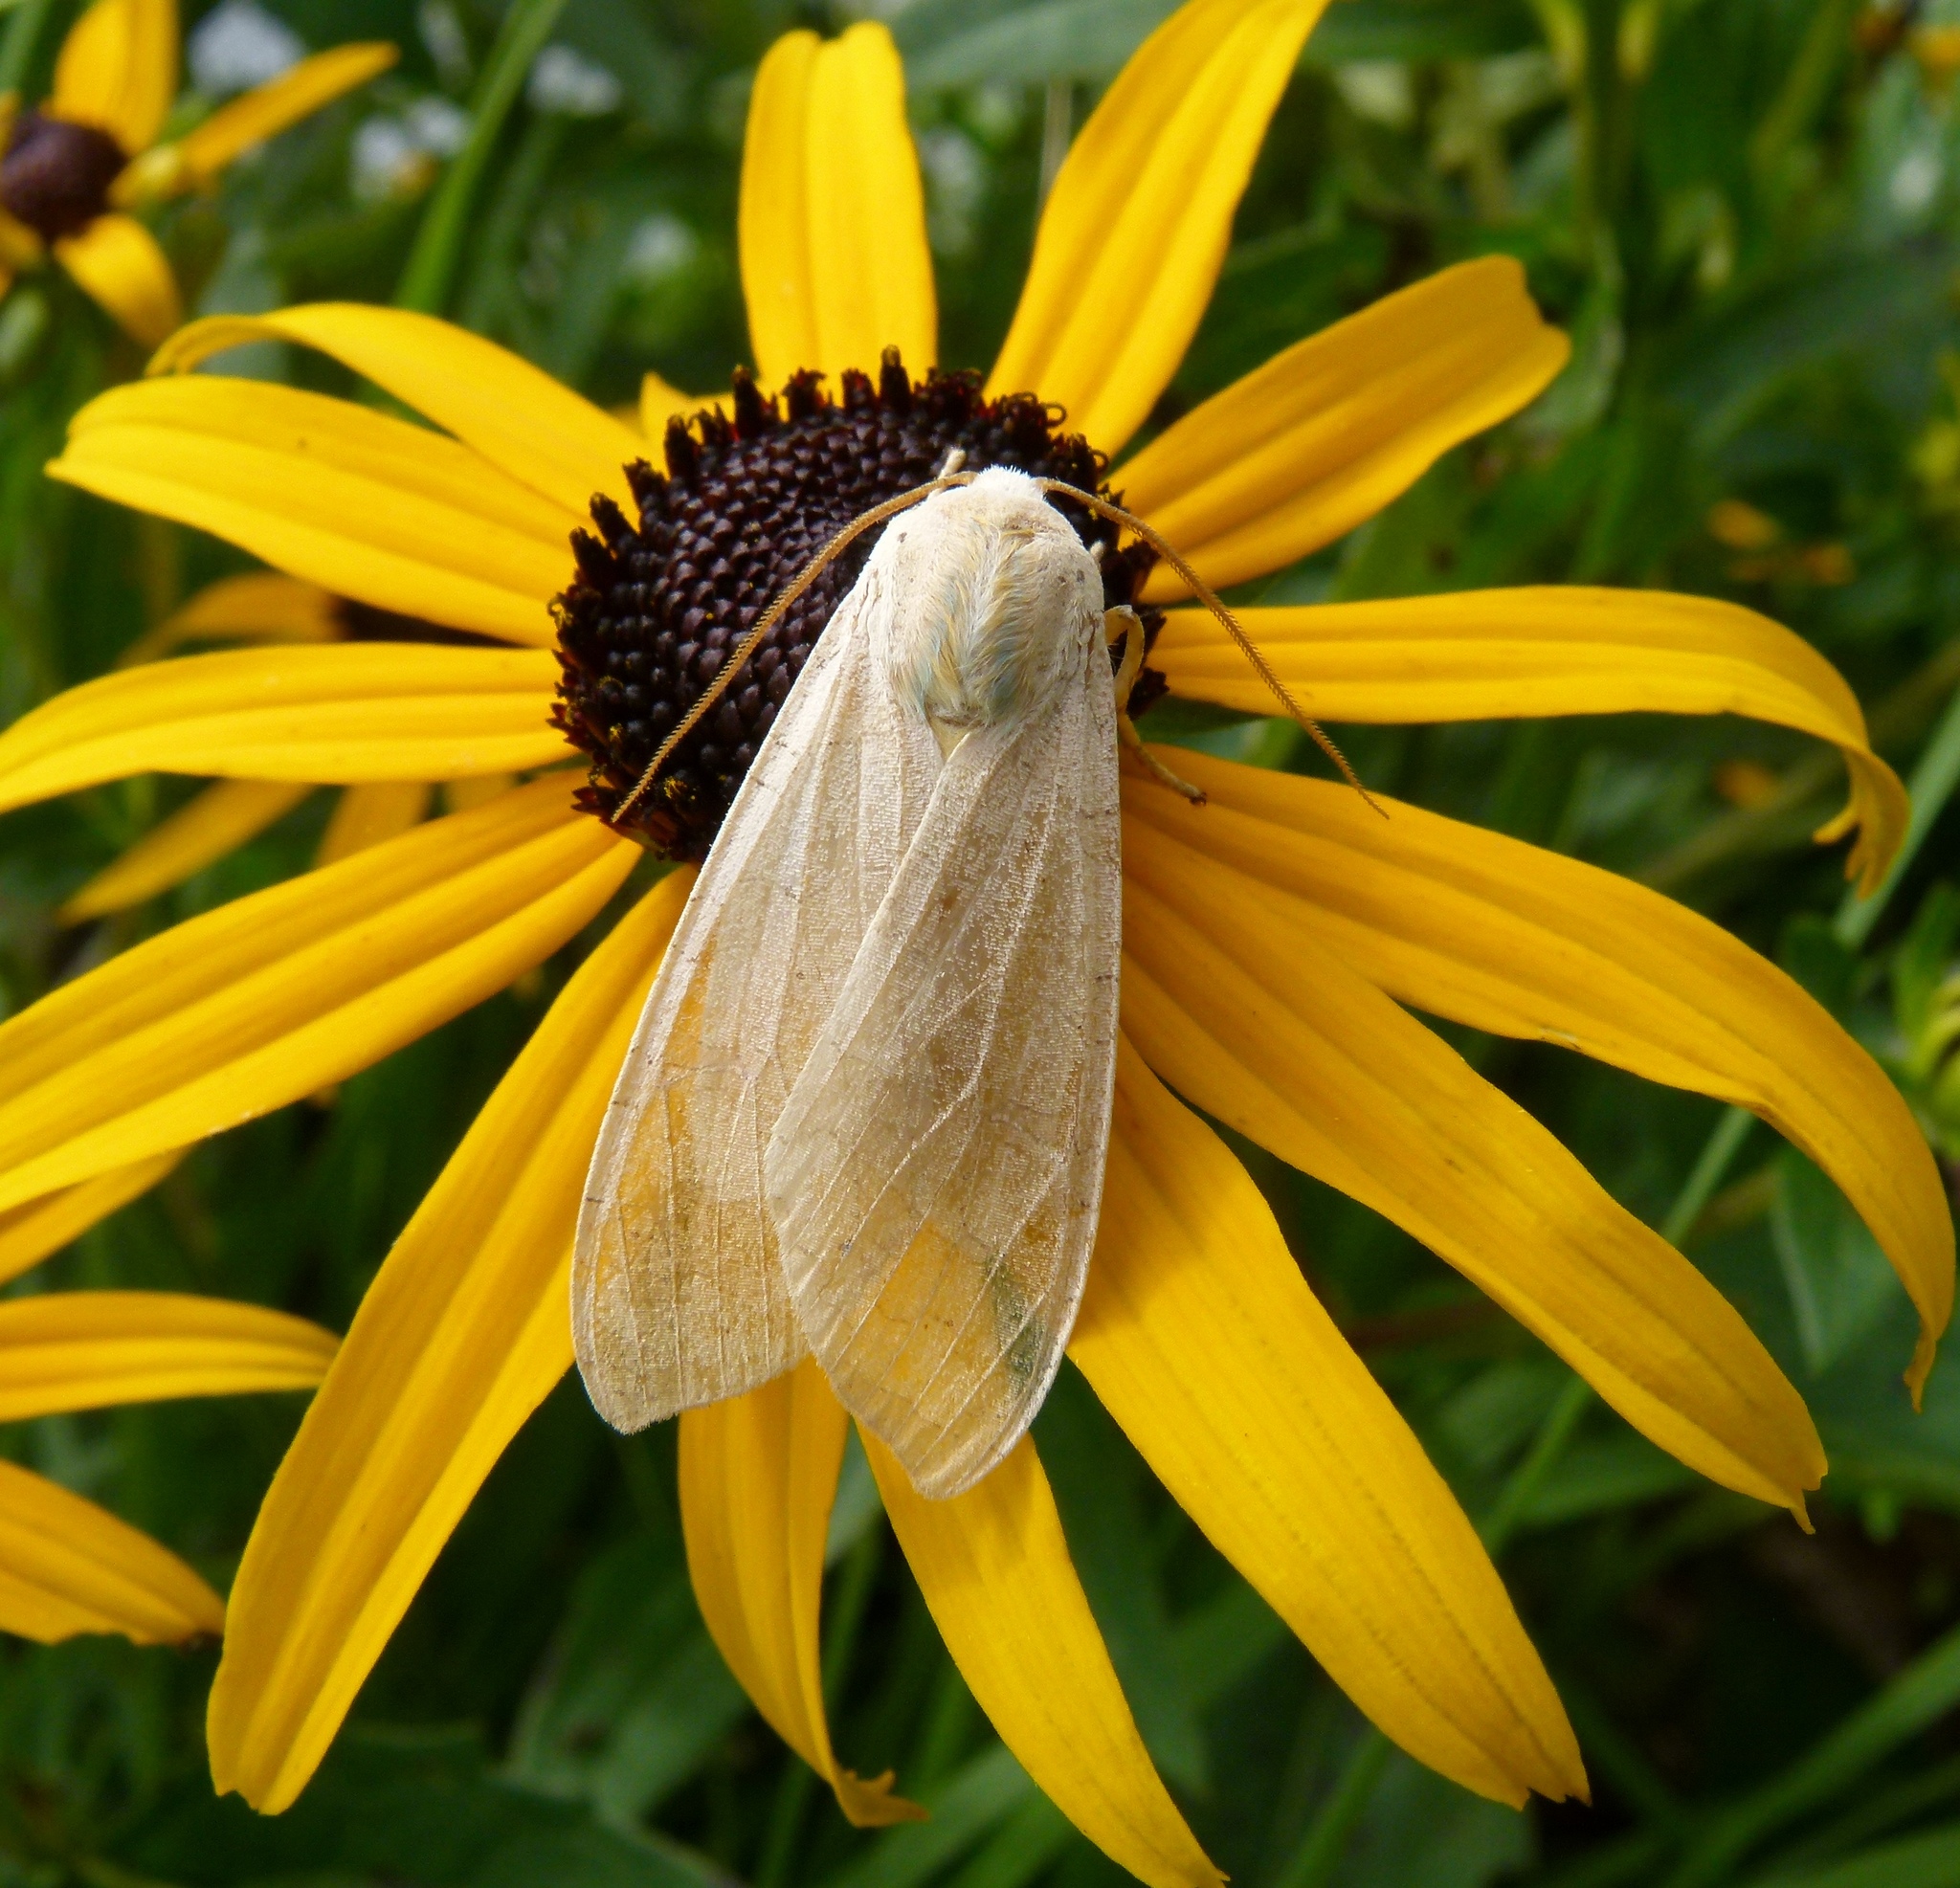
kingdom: Animalia
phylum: Arthropoda
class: Insecta
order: Lepidoptera
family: Erebidae
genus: Halysidota
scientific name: Halysidota
